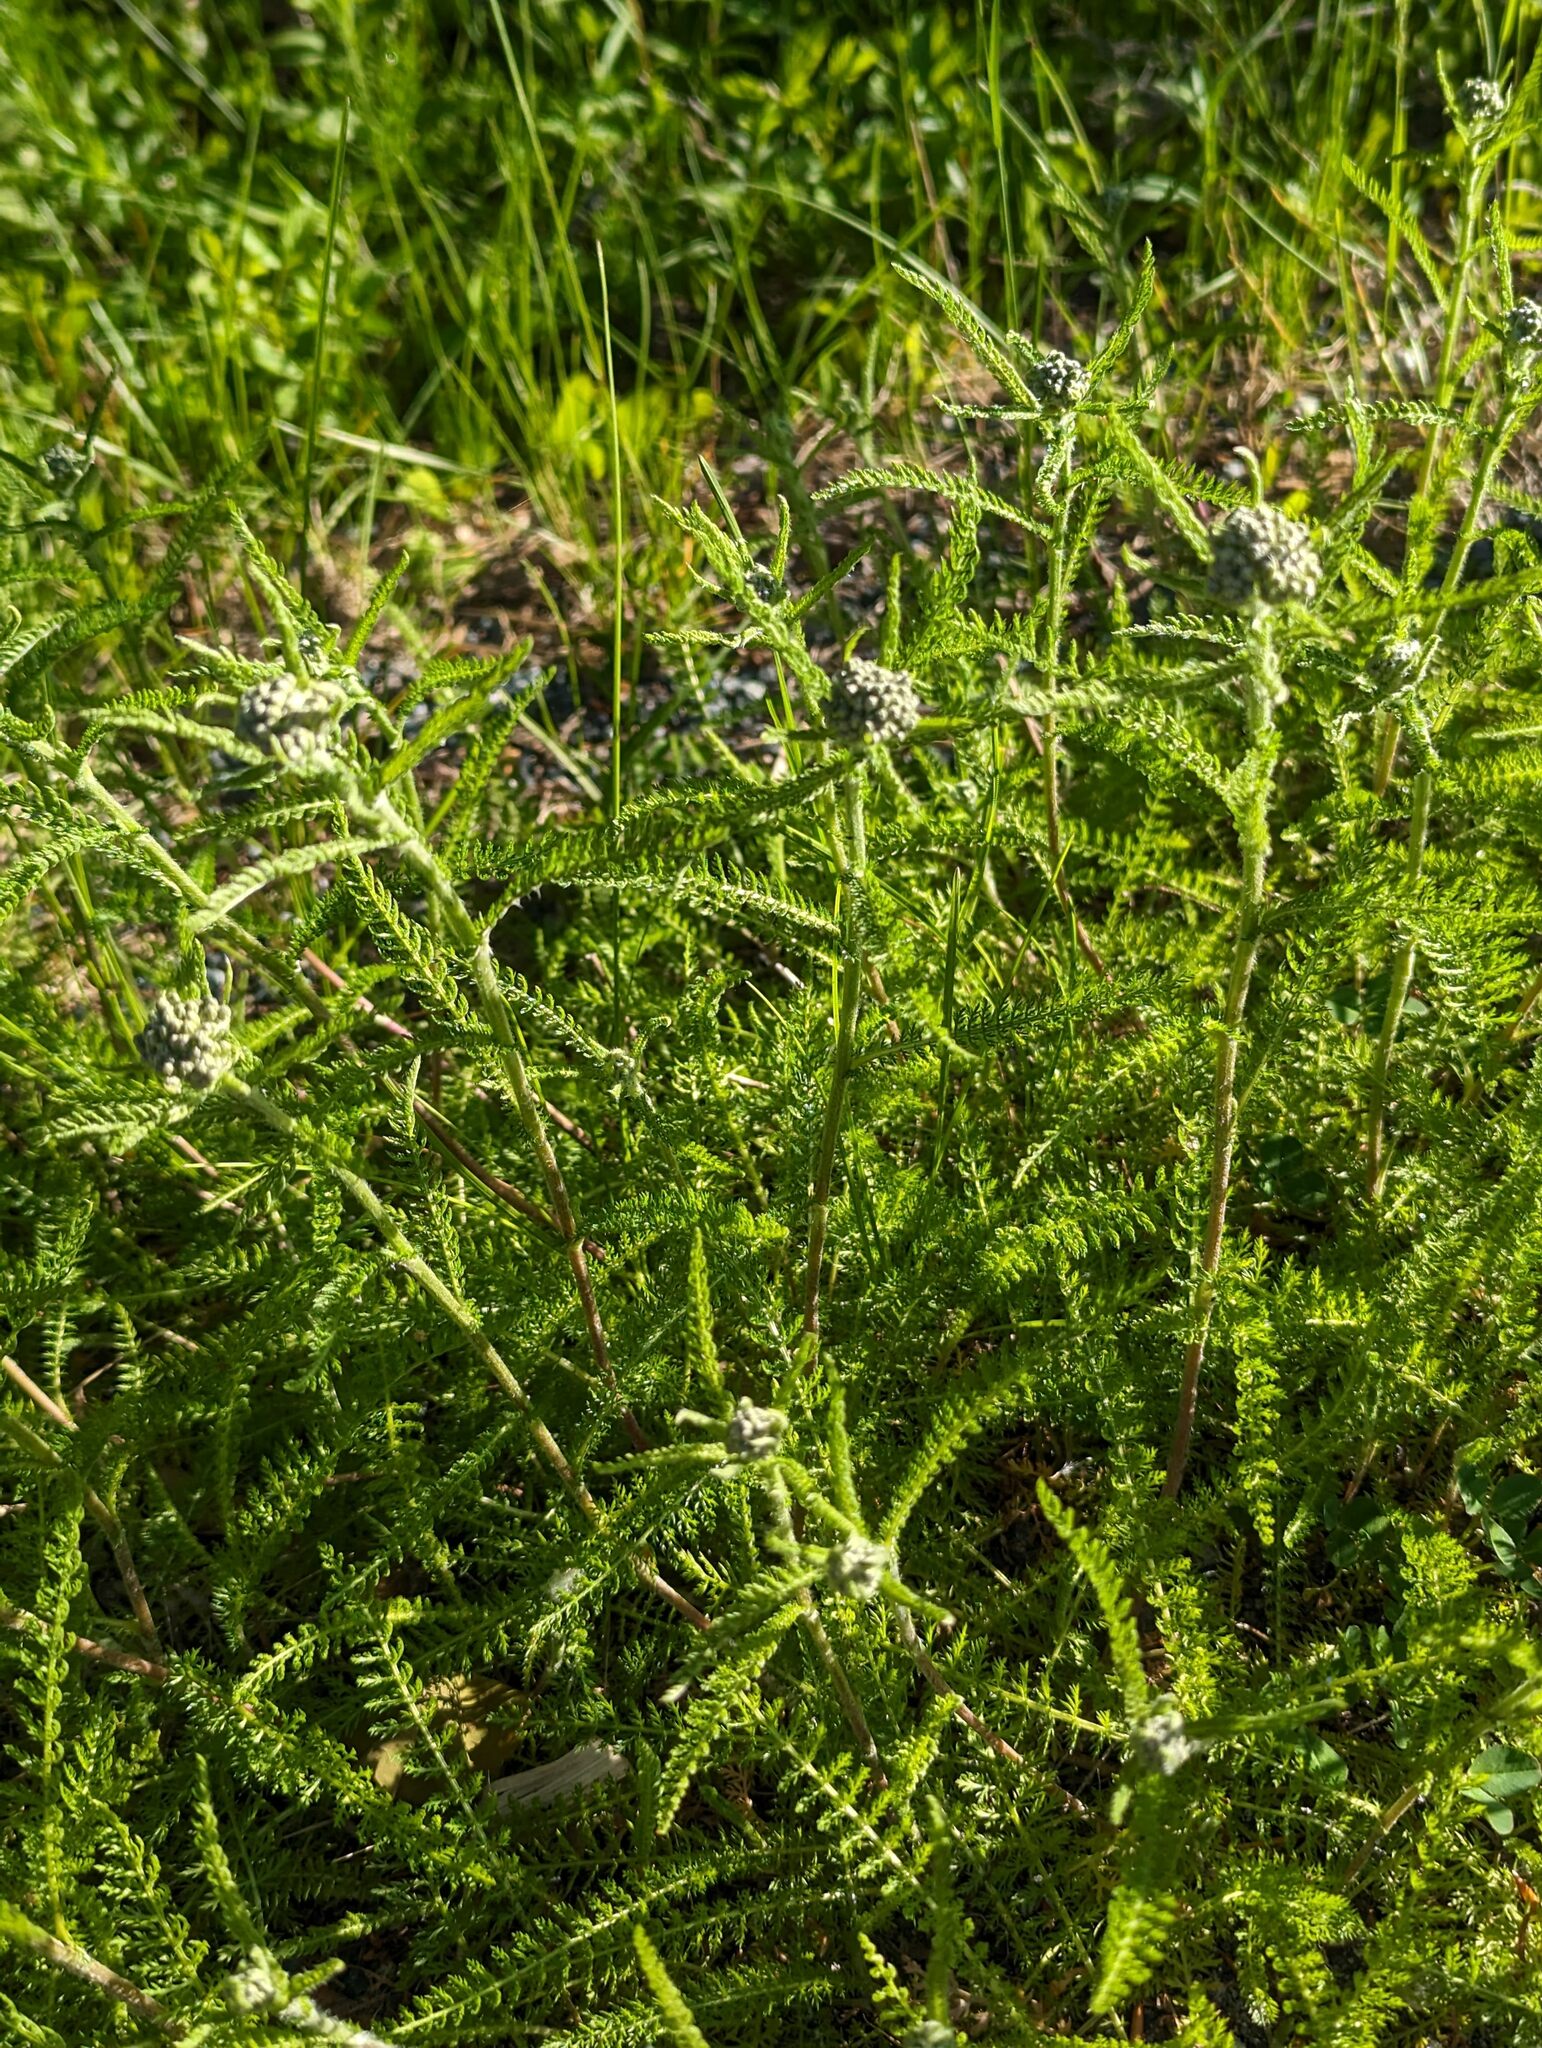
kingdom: Plantae
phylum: Tracheophyta
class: Magnoliopsida
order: Asterales
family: Asteraceae
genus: Achillea
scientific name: Achillea millefolium
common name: Yarrow
